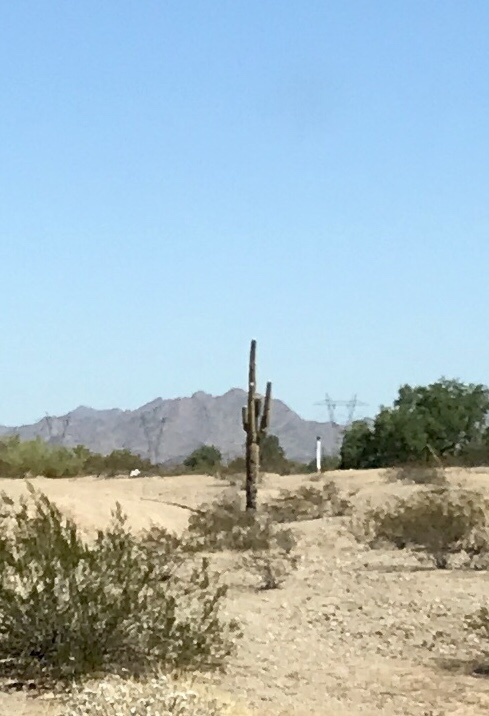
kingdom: Plantae
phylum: Tracheophyta
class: Magnoliopsida
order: Caryophyllales
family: Cactaceae
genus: Carnegiea
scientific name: Carnegiea gigantea
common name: Saguaro
